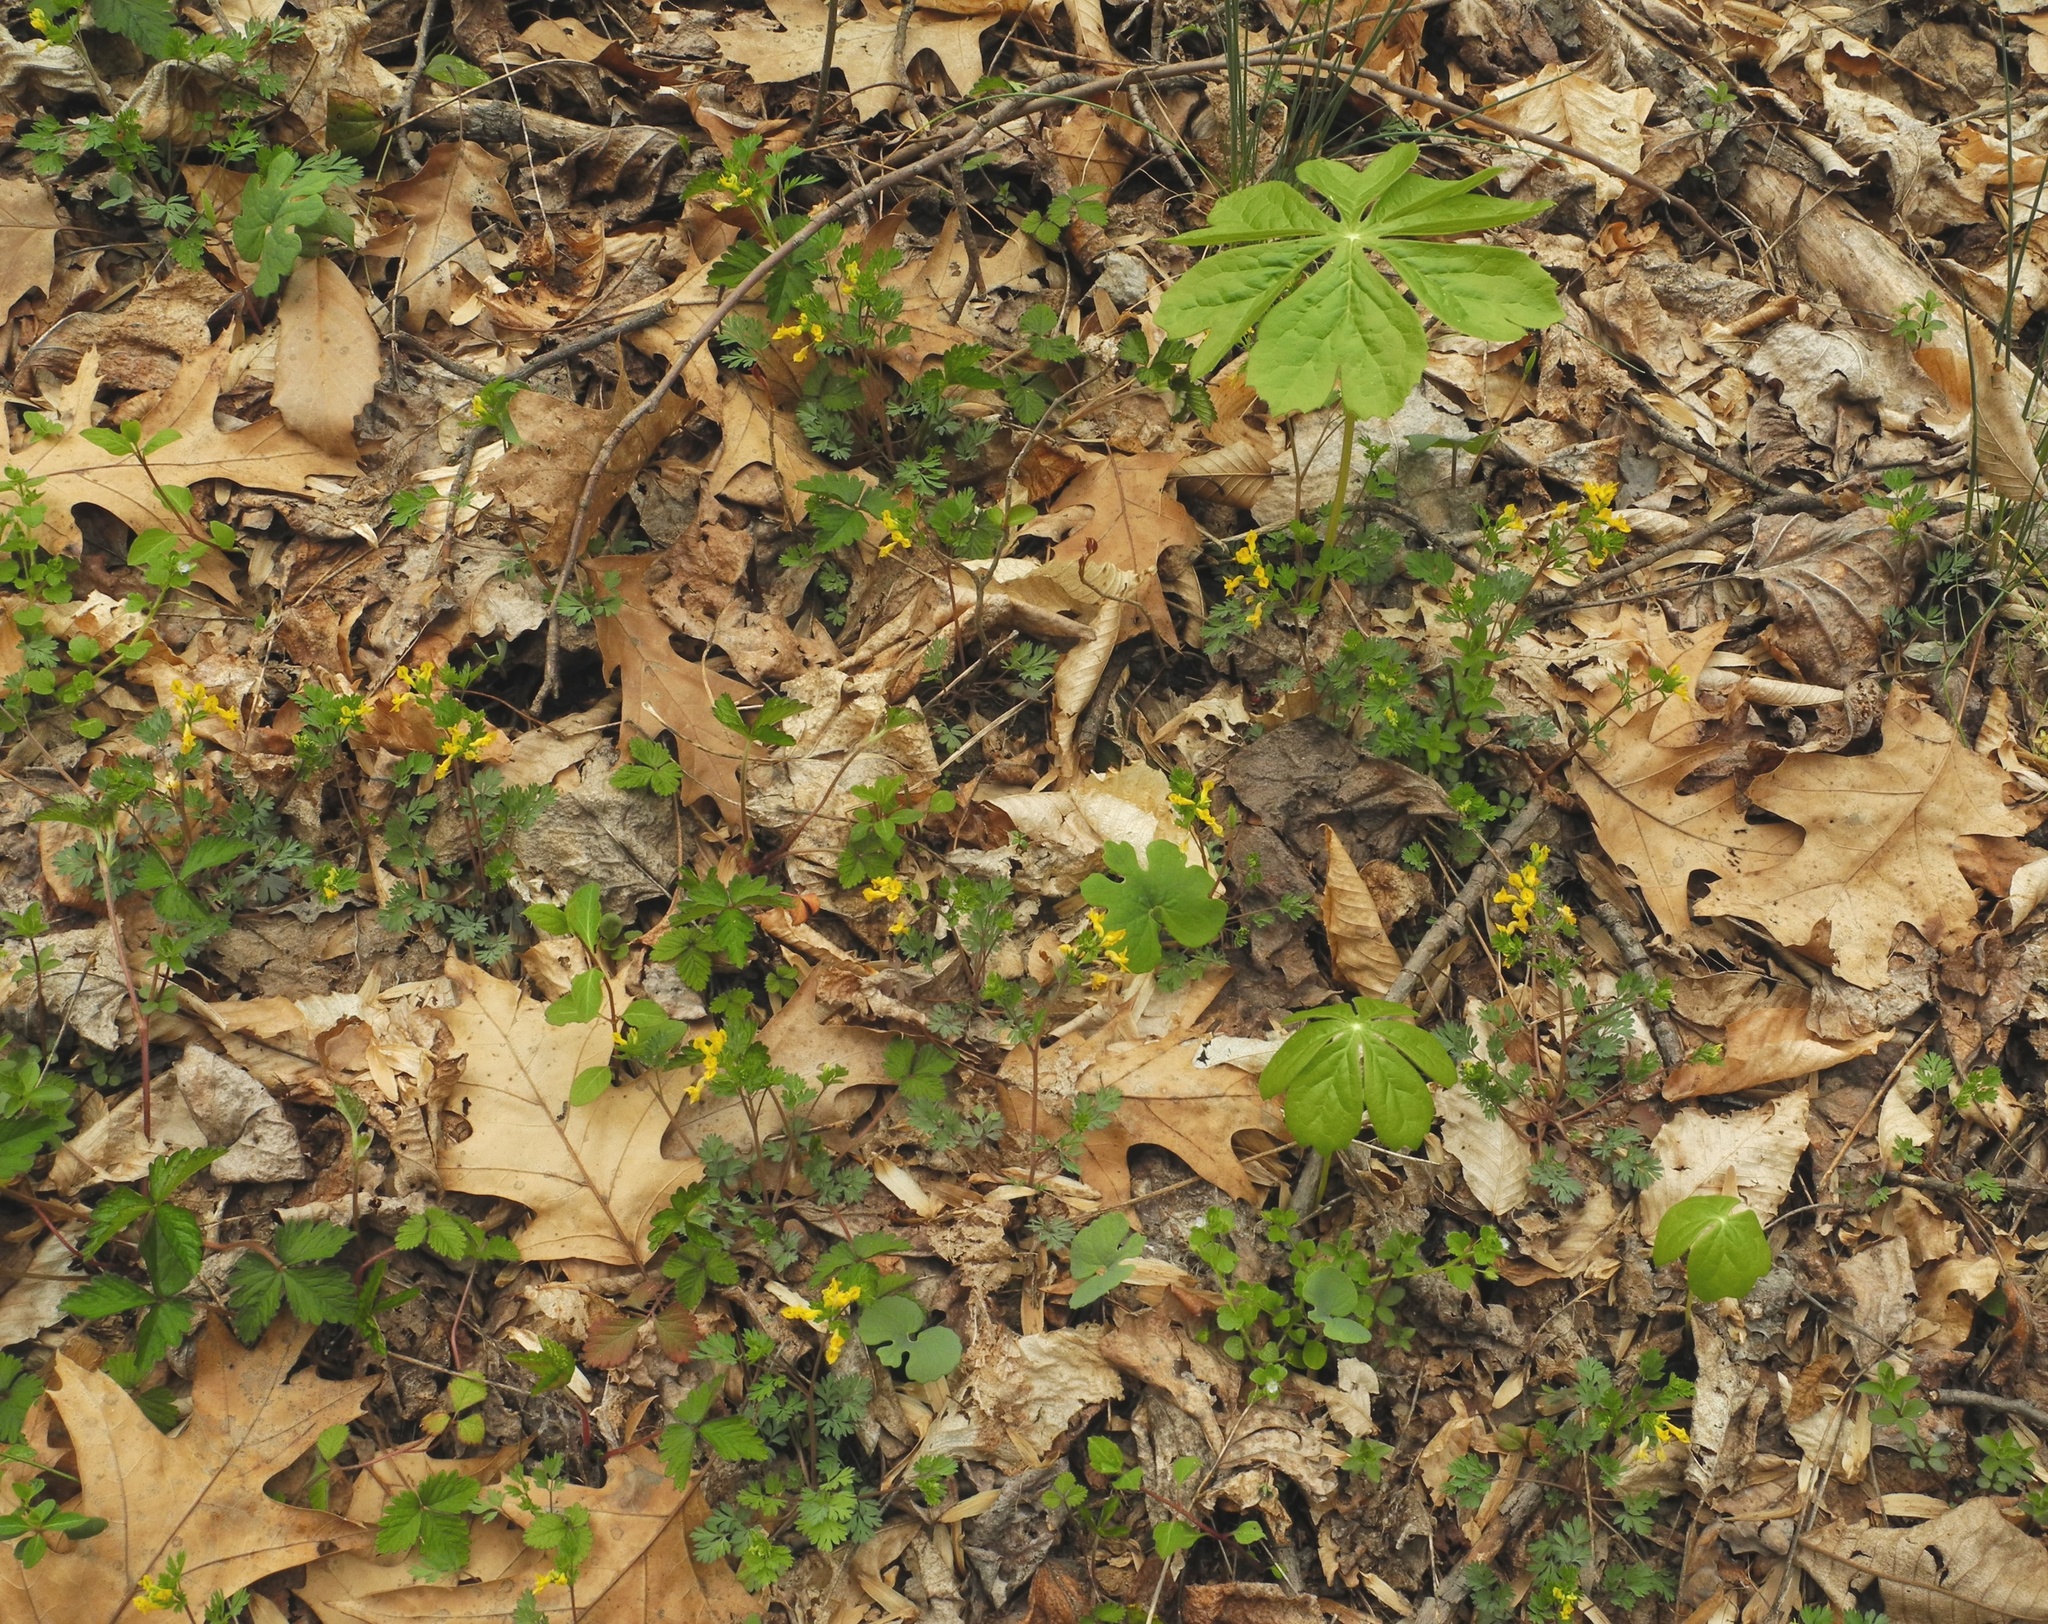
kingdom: Plantae
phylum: Tracheophyta
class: Magnoliopsida
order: Ranunculales
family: Papaveraceae
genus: Sanguinaria
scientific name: Sanguinaria canadensis
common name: Bloodroot
